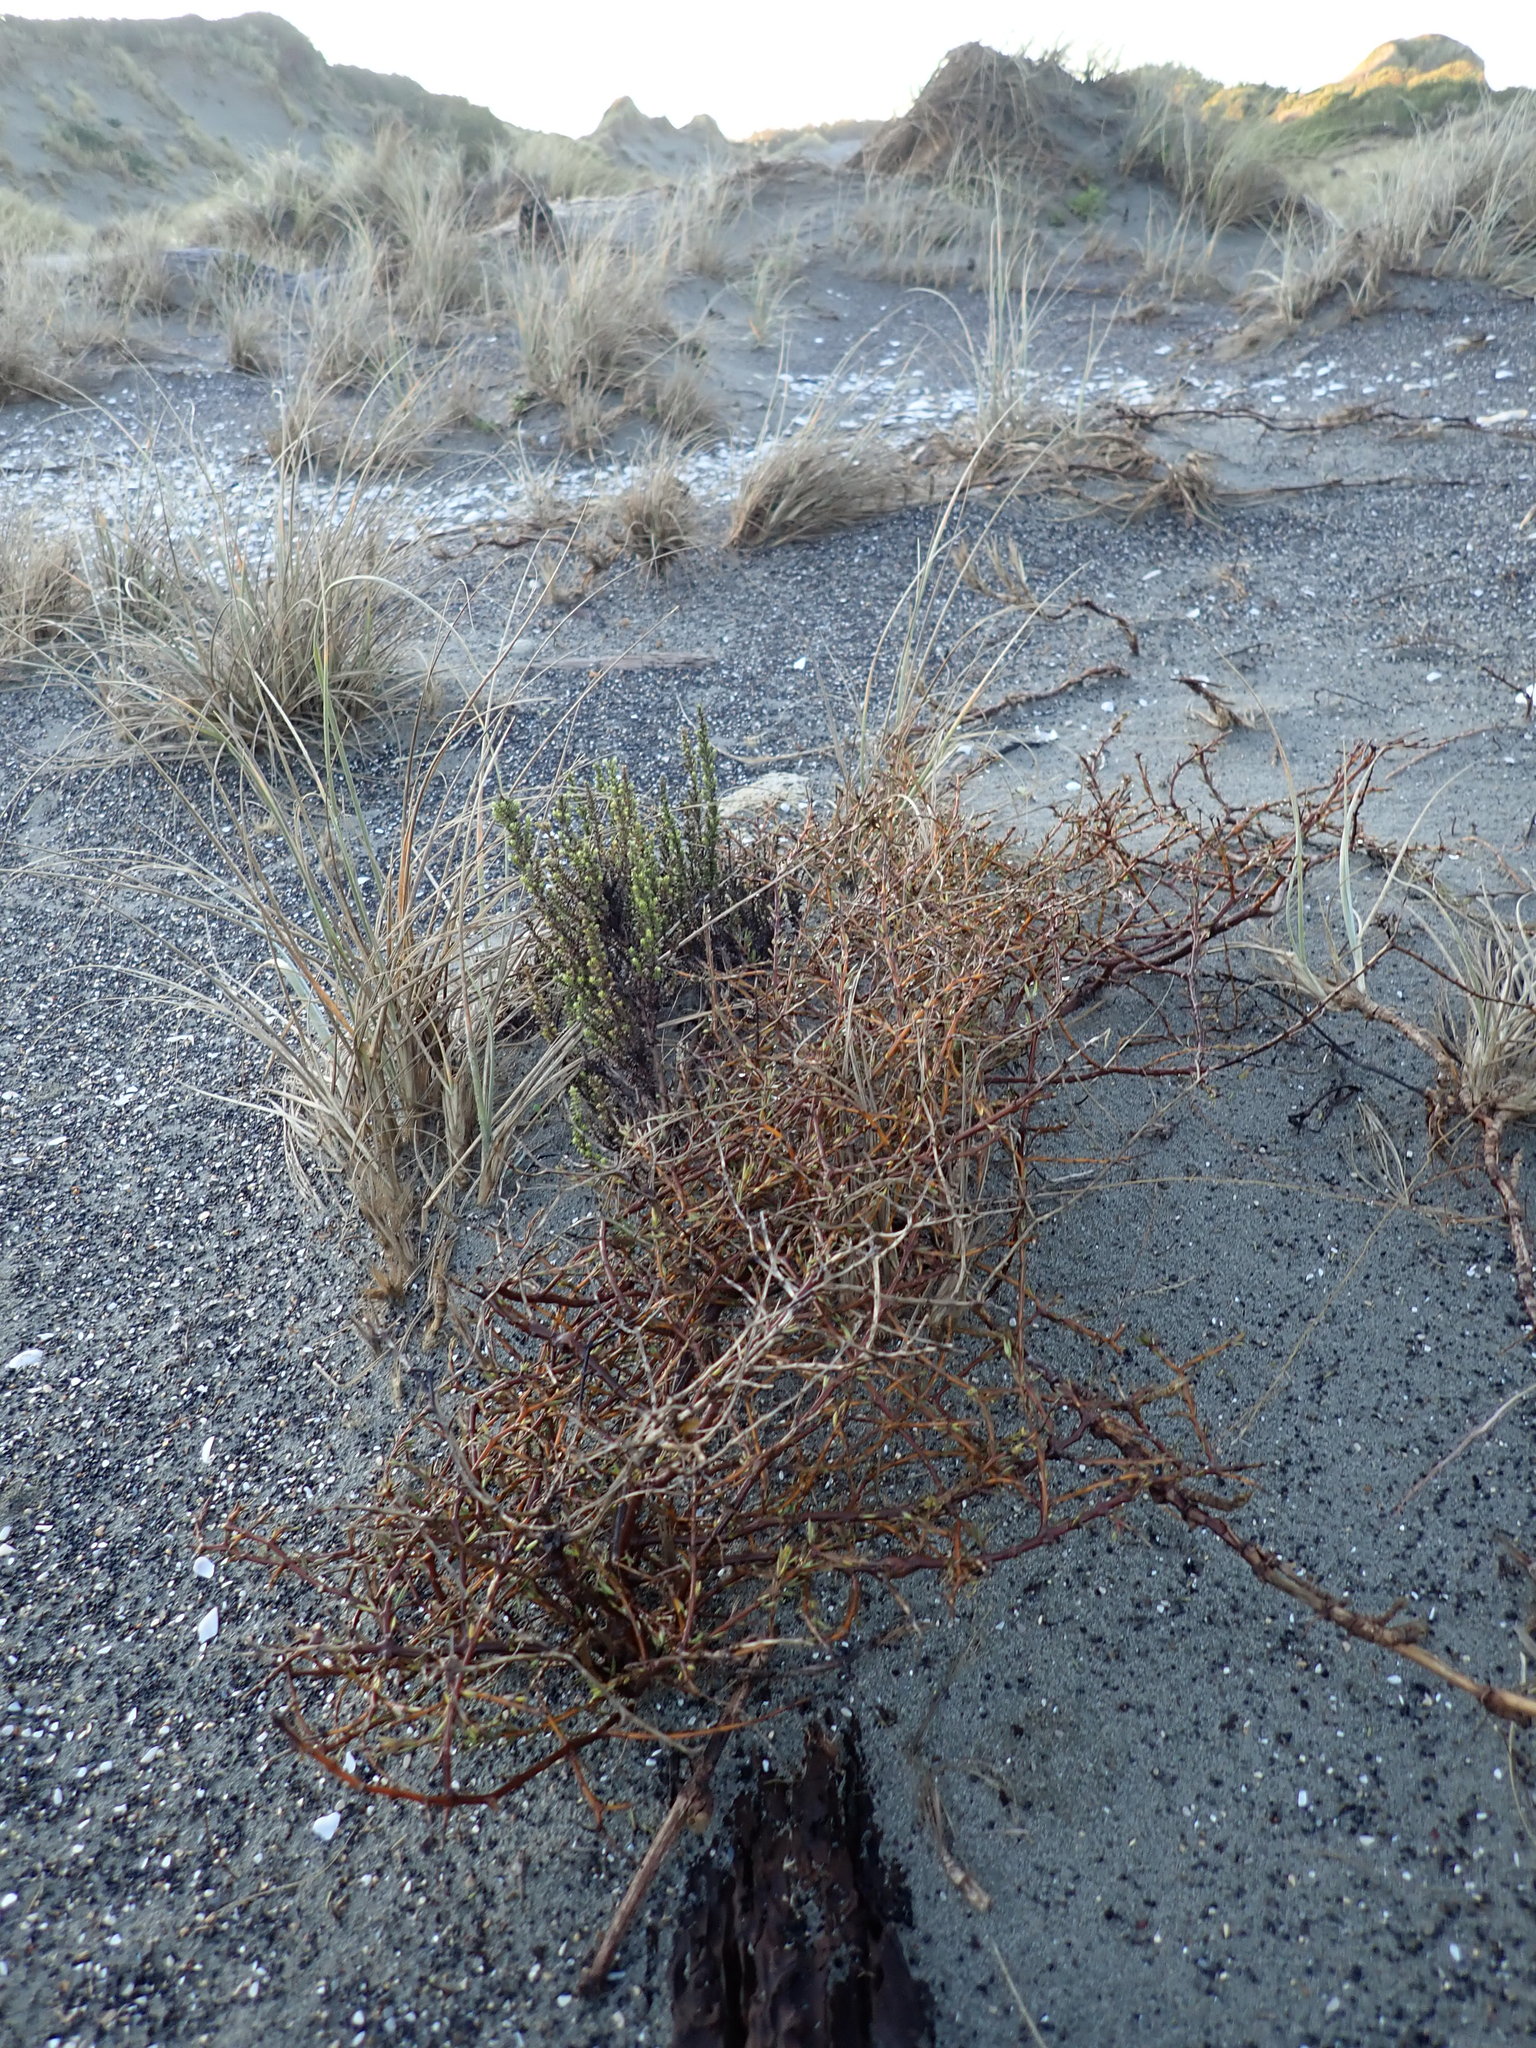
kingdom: Plantae
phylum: Tracheophyta
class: Magnoliopsida
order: Gentianales
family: Rubiaceae
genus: Coprosma
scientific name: Coprosma acerosa
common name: Sand coprosma
